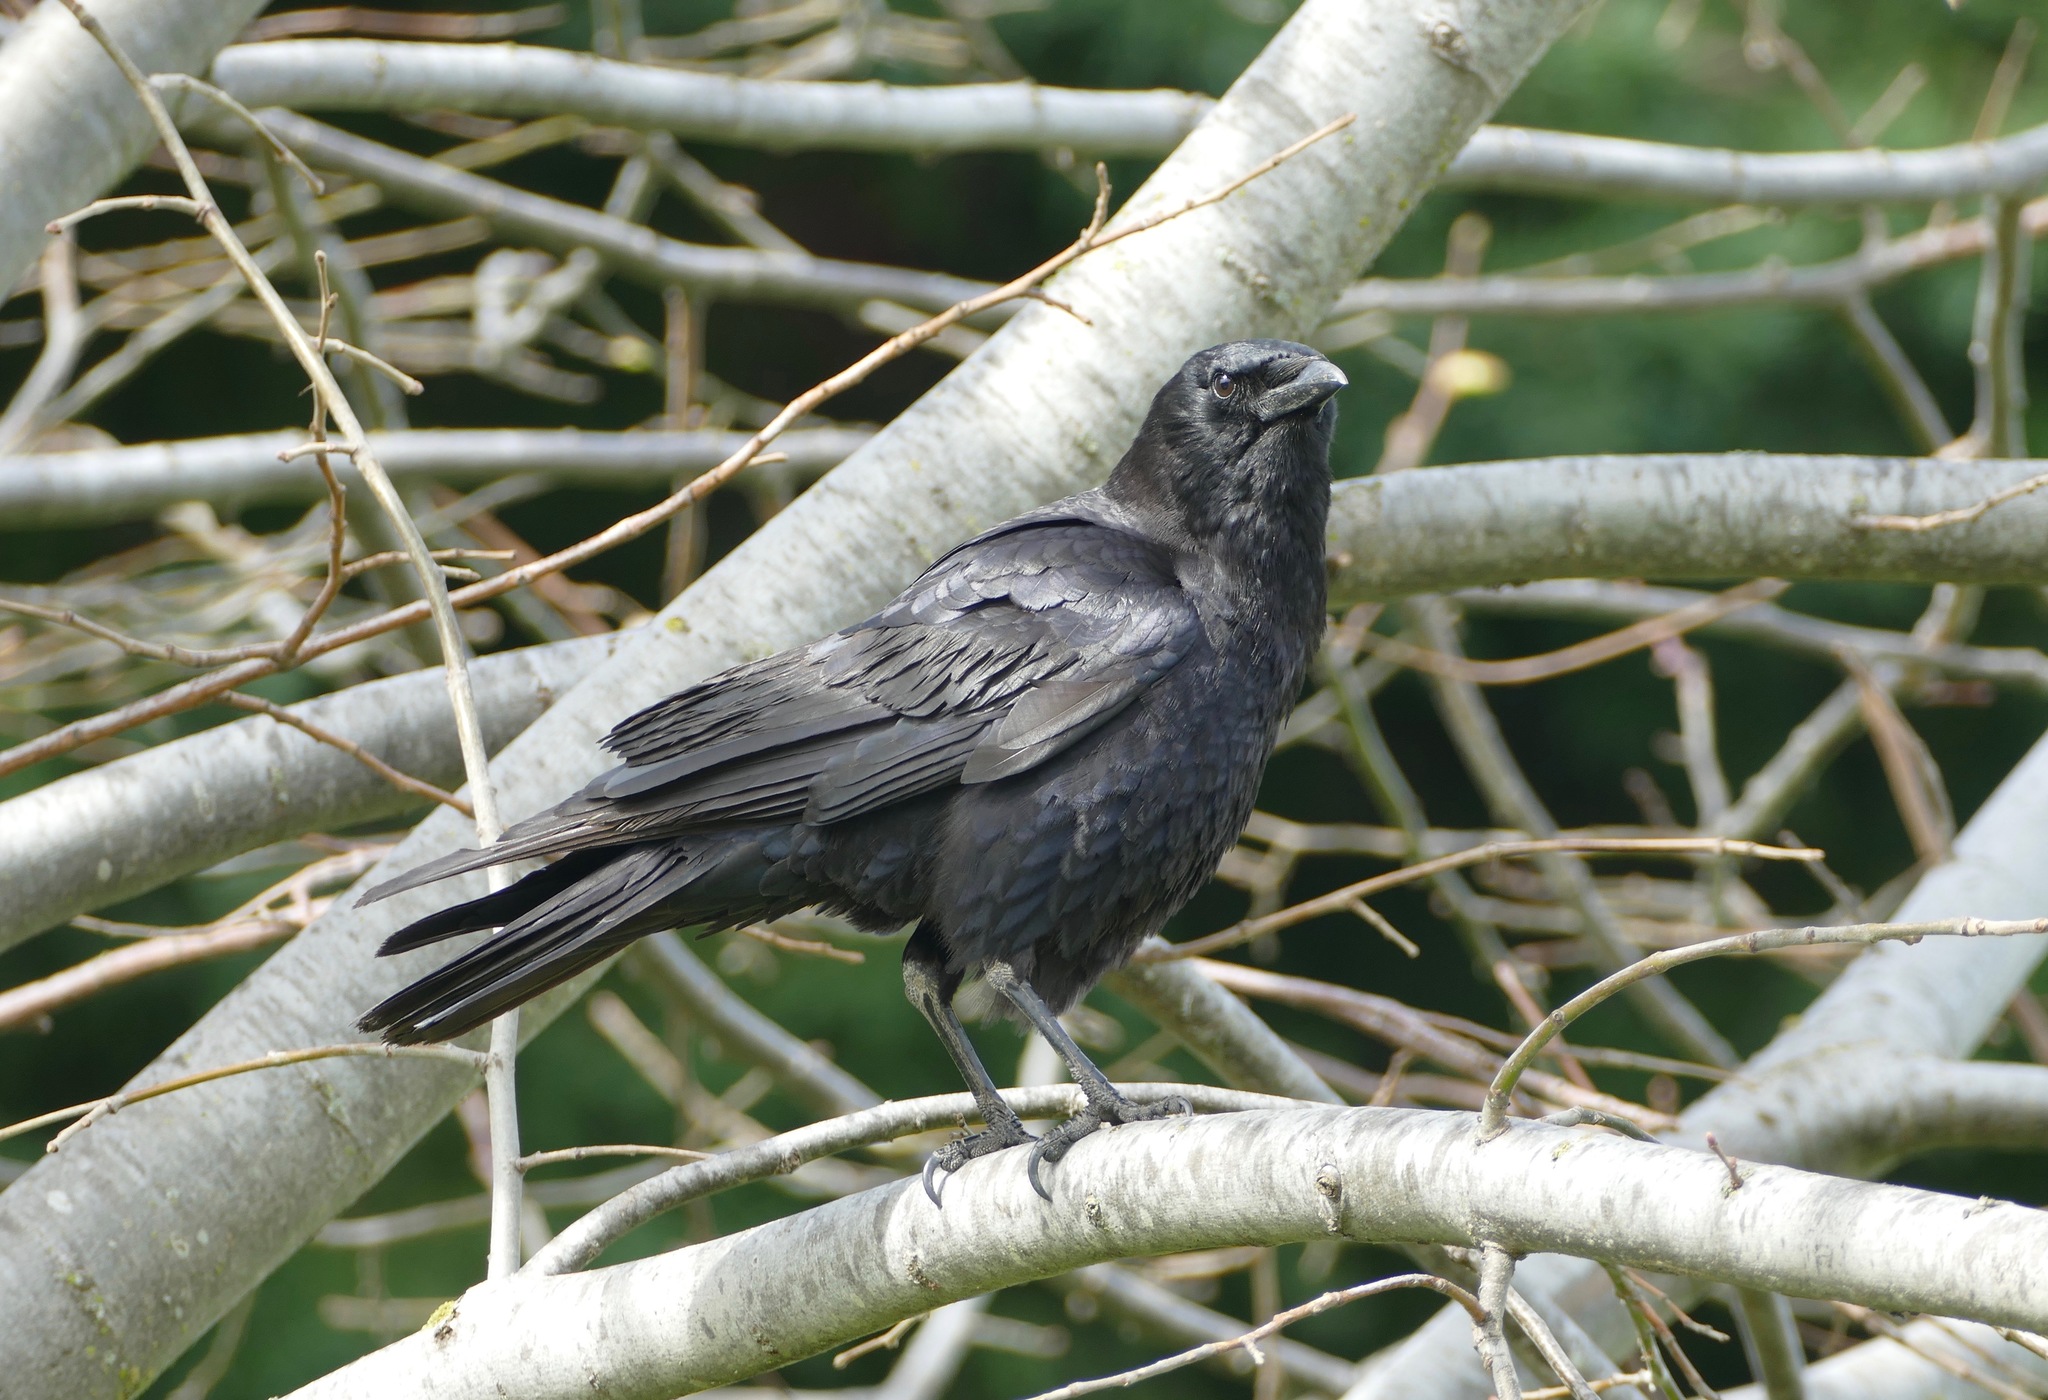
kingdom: Animalia
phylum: Chordata
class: Aves
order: Passeriformes
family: Corvidae
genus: Corvus
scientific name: Corvus brachyrhynchos
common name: American crow
